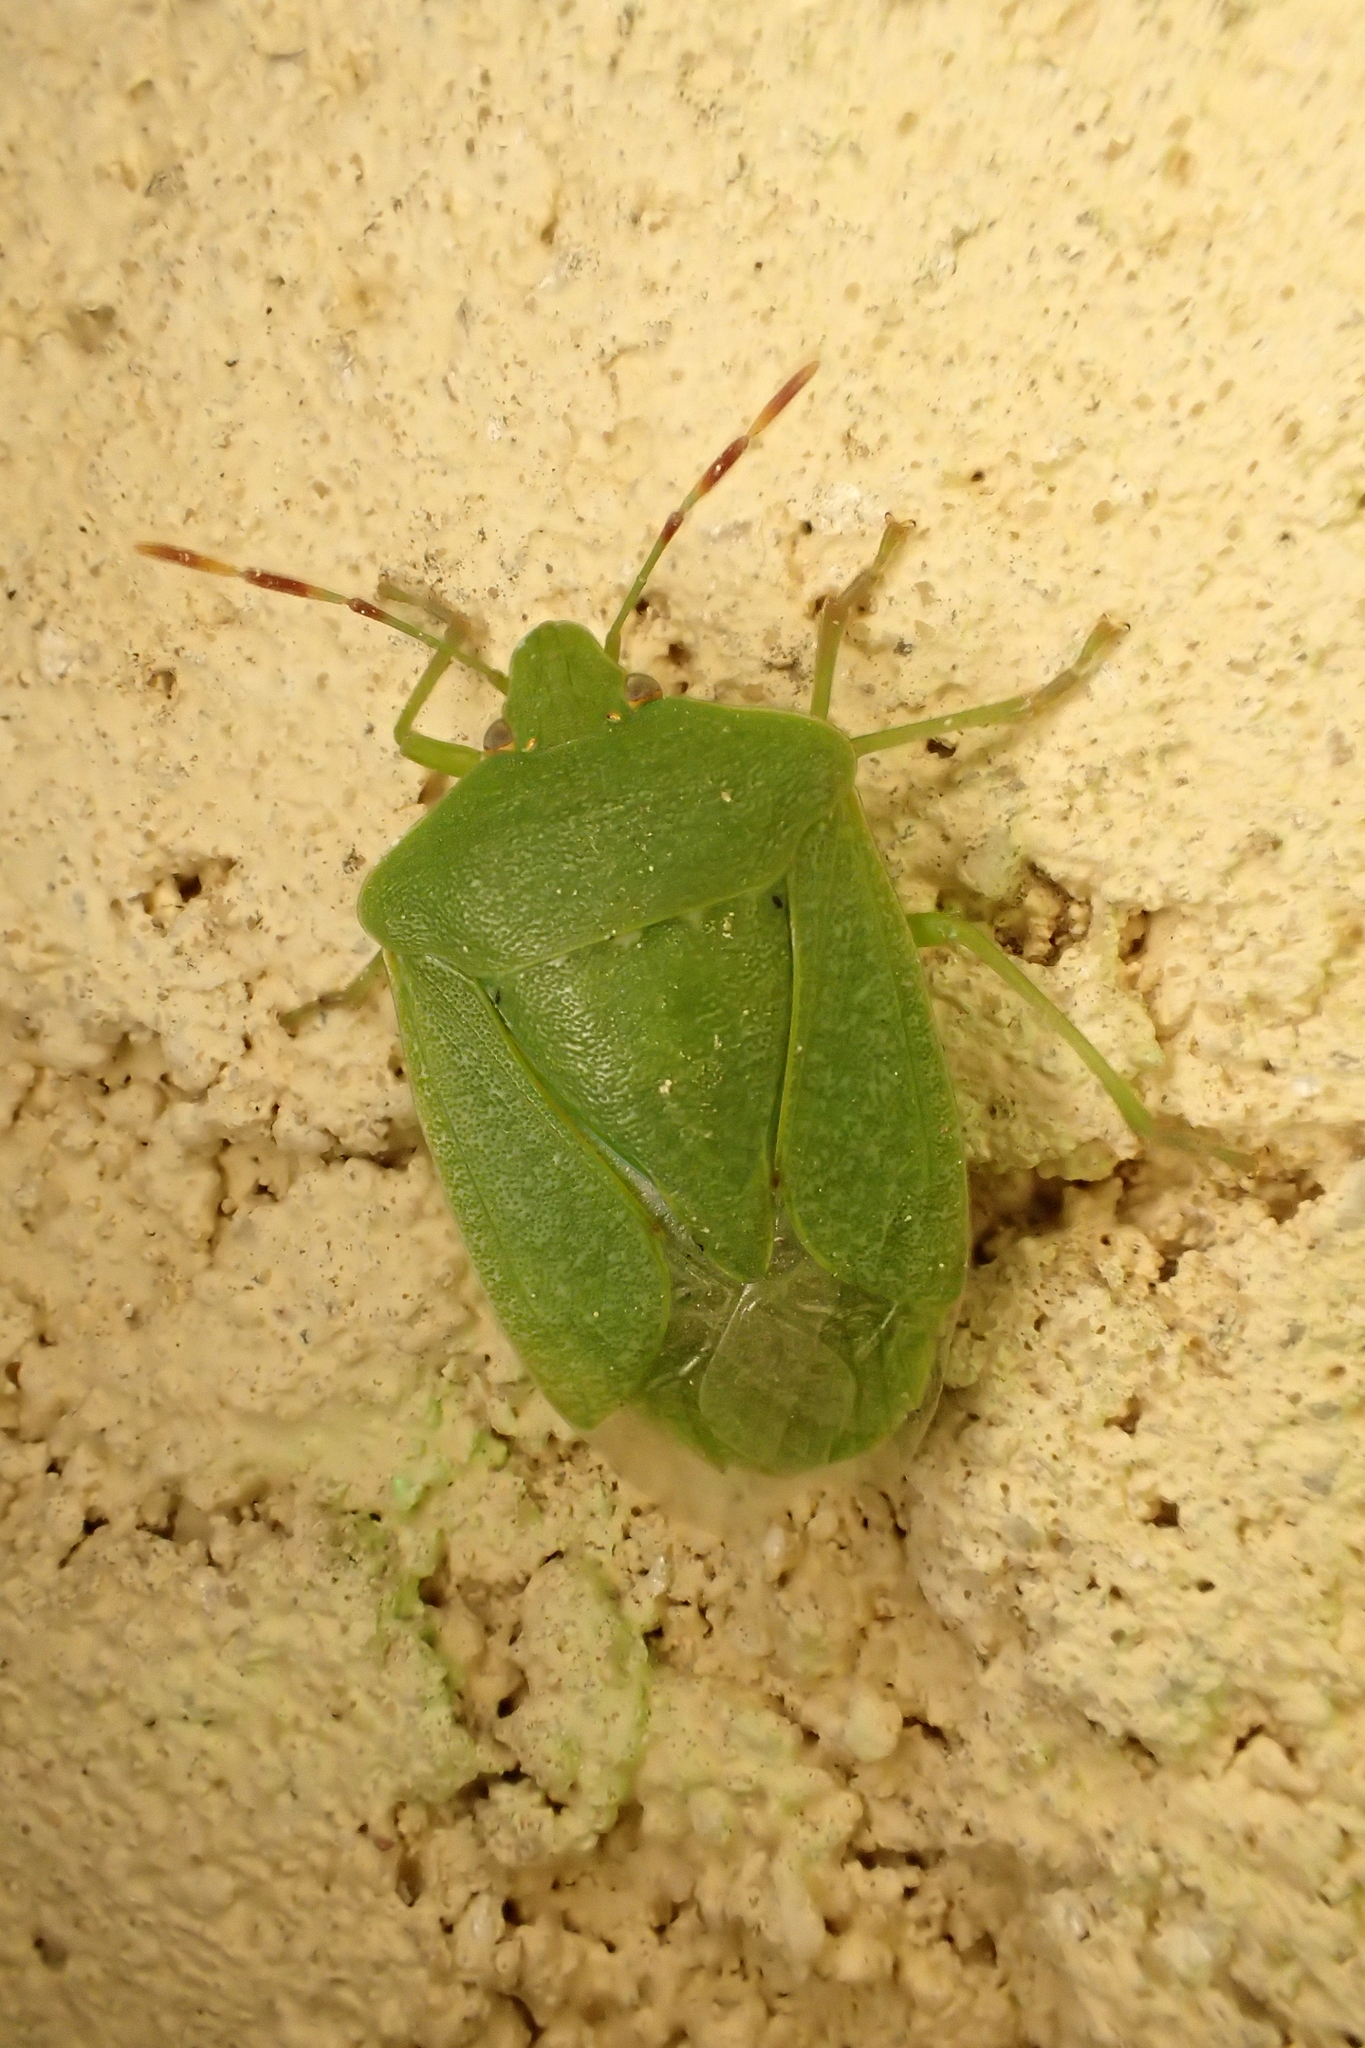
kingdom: Animalia
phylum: Arthropoda
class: Insecta
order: Hemiptera
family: Pentatomidae
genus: Nezara
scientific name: Nezara viridula
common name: Southern green stink bug
